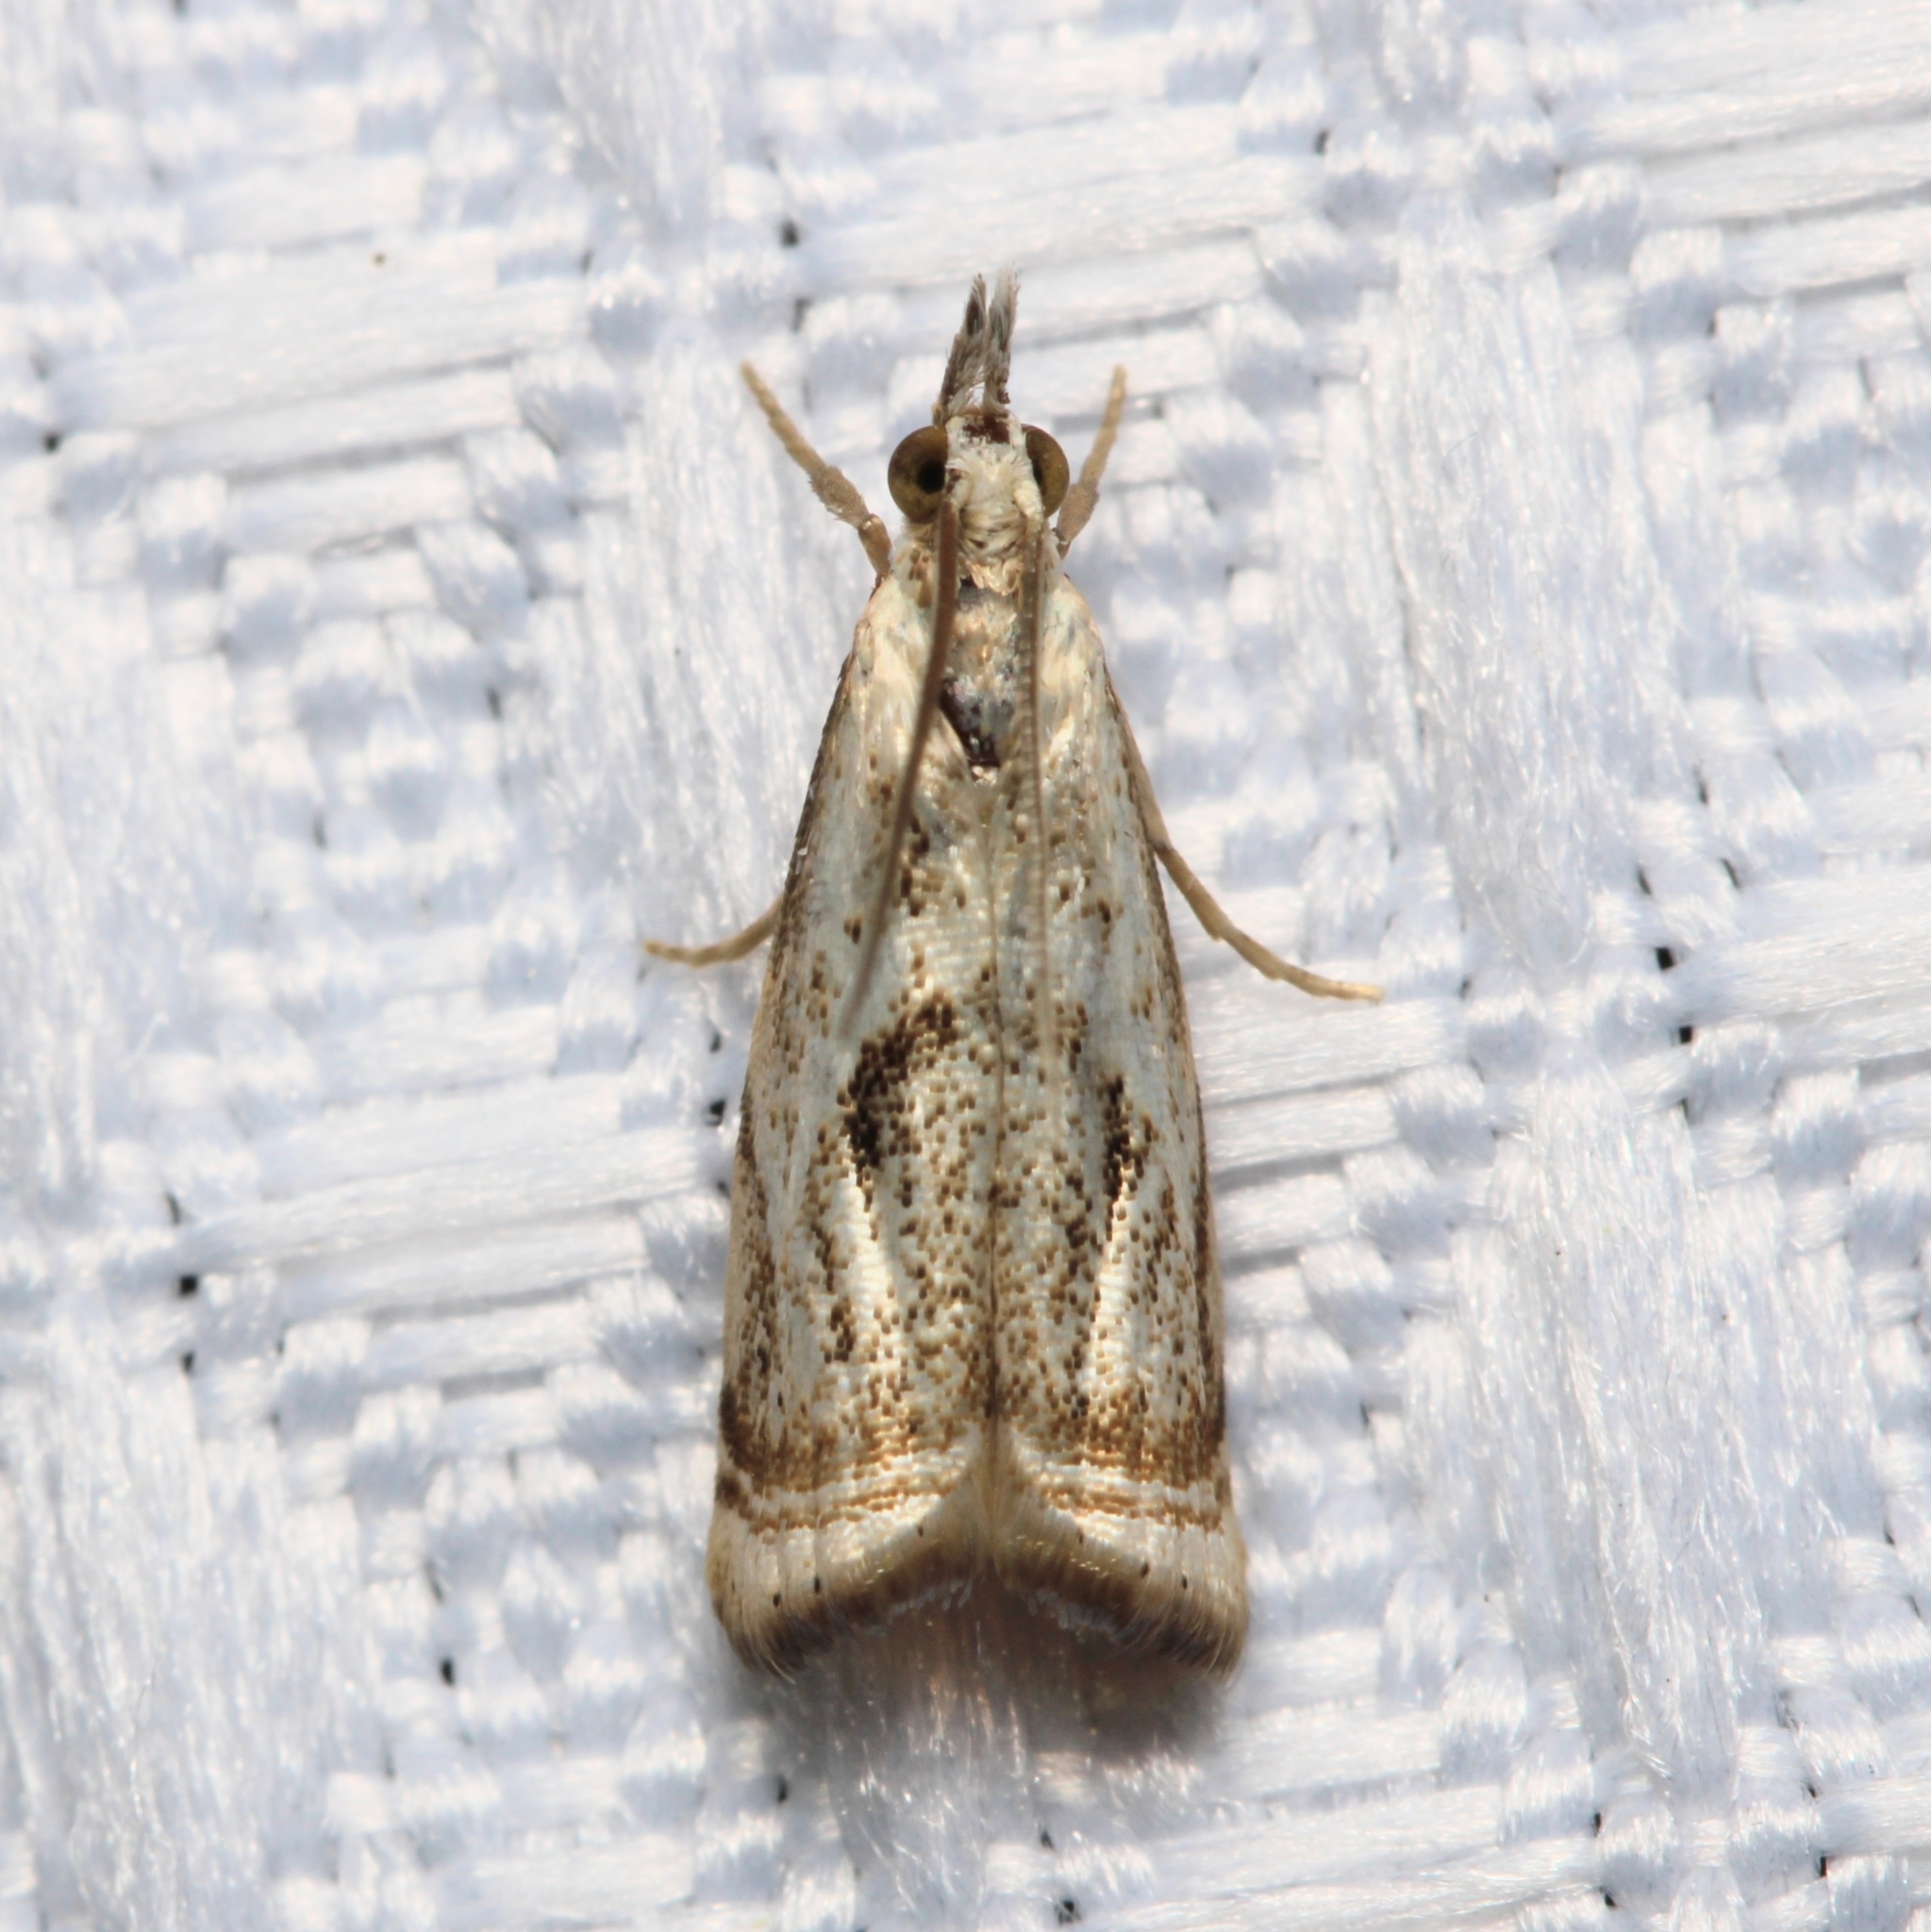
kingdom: Animalia
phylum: Arthropoda
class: Insecta
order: Lepidoptera
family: Crambidae
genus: Microcrambus
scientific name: Microcrambus elegans
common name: Elegant grass-veneer
